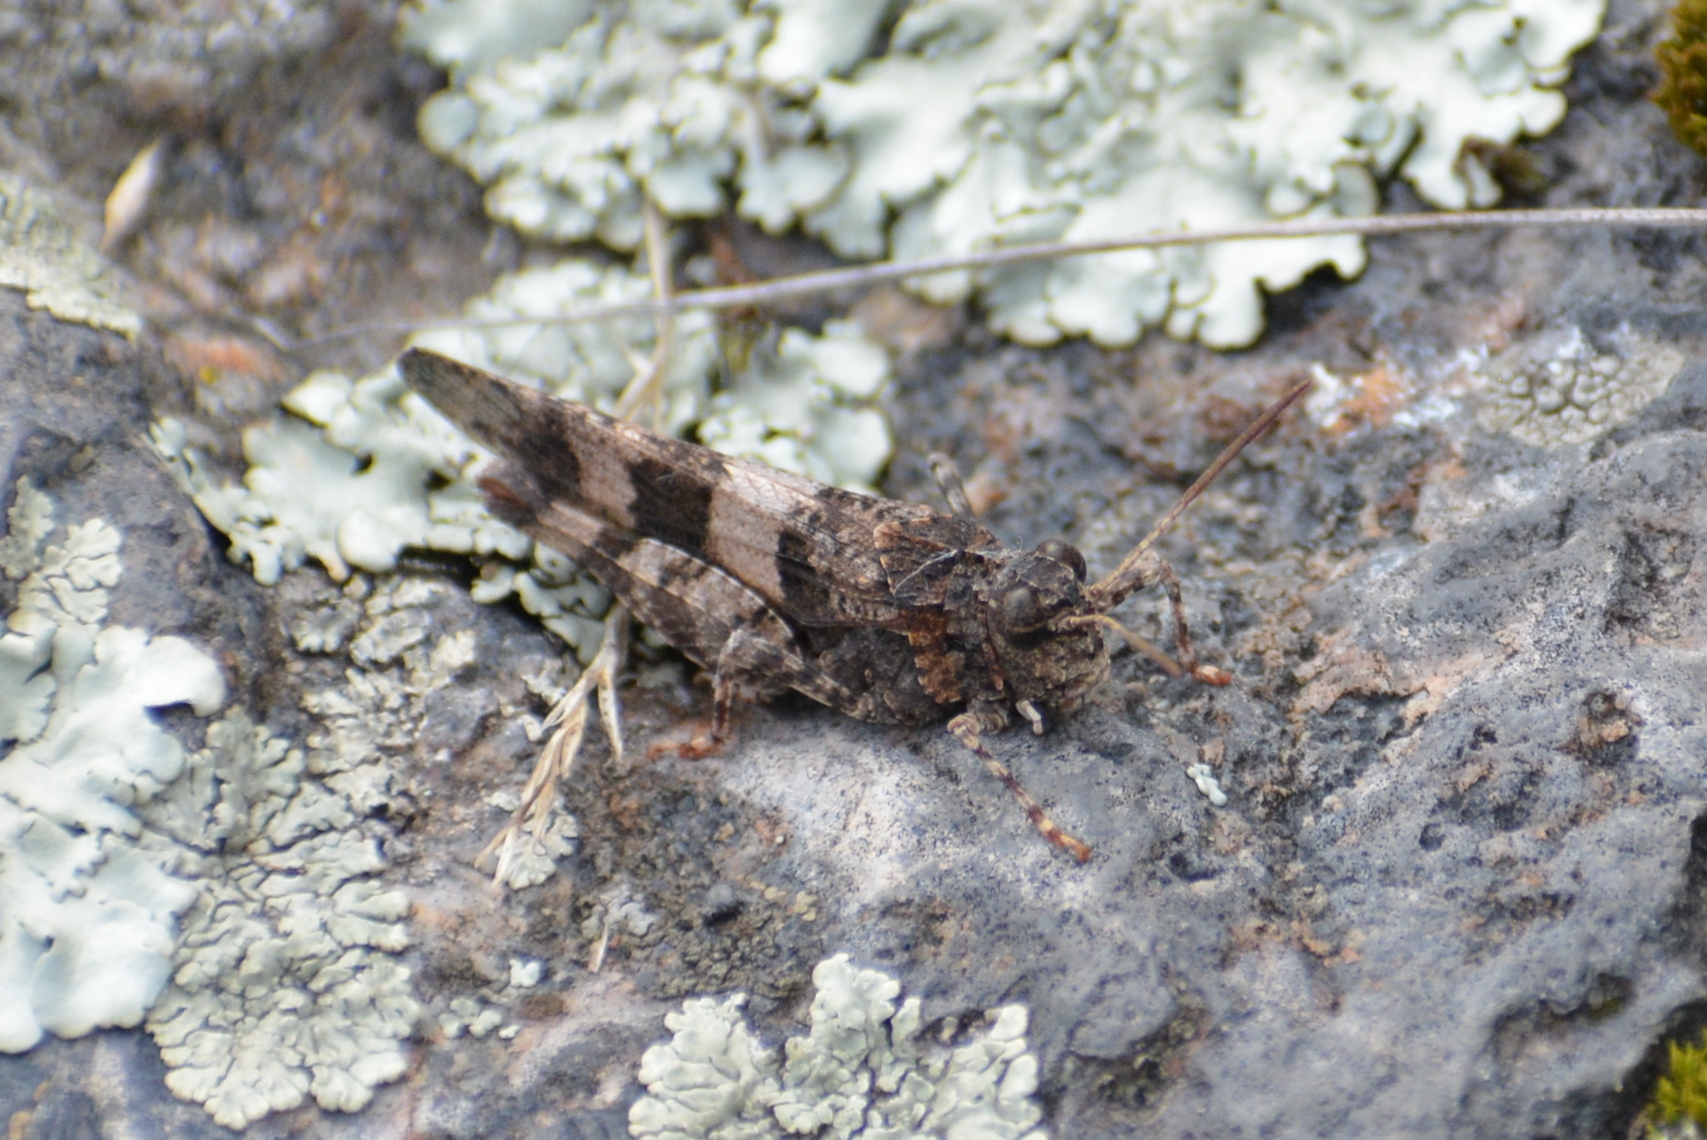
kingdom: Animalia
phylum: Arthropoda
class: Insecta
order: Orthoptera
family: Acrididae
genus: Oedipoda
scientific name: Oedipoda caerulescens
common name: Blue-winged grasshopper
